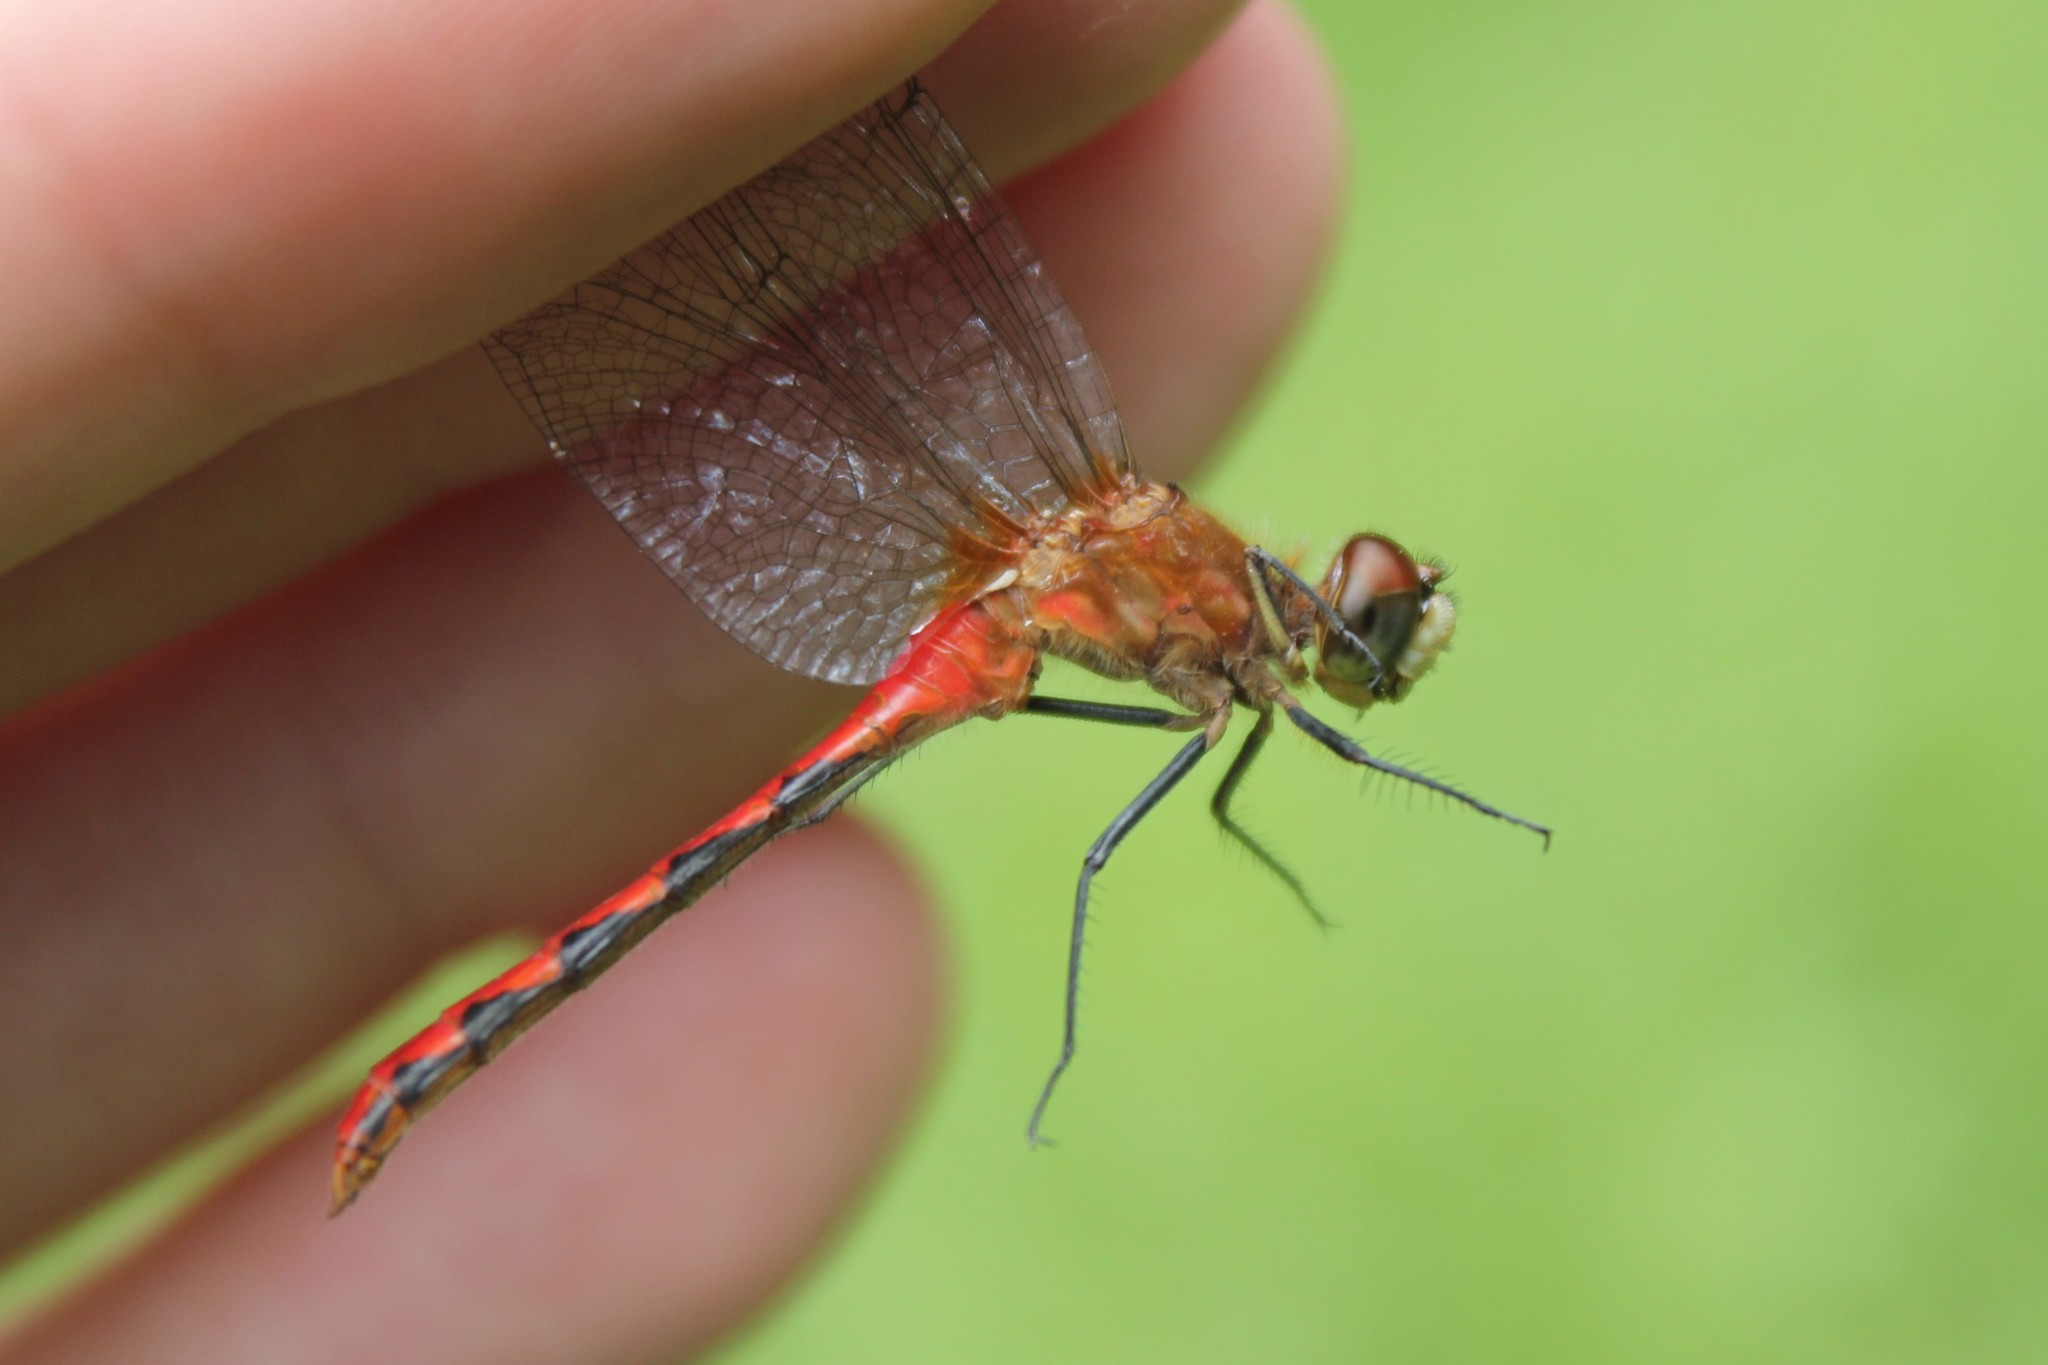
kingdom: Animalia
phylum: Arthropoda
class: Insecta
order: Odonata
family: Libellulidae
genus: Sympetrum
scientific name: Sympetrum obtrusum
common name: White-faced meadowhawk
